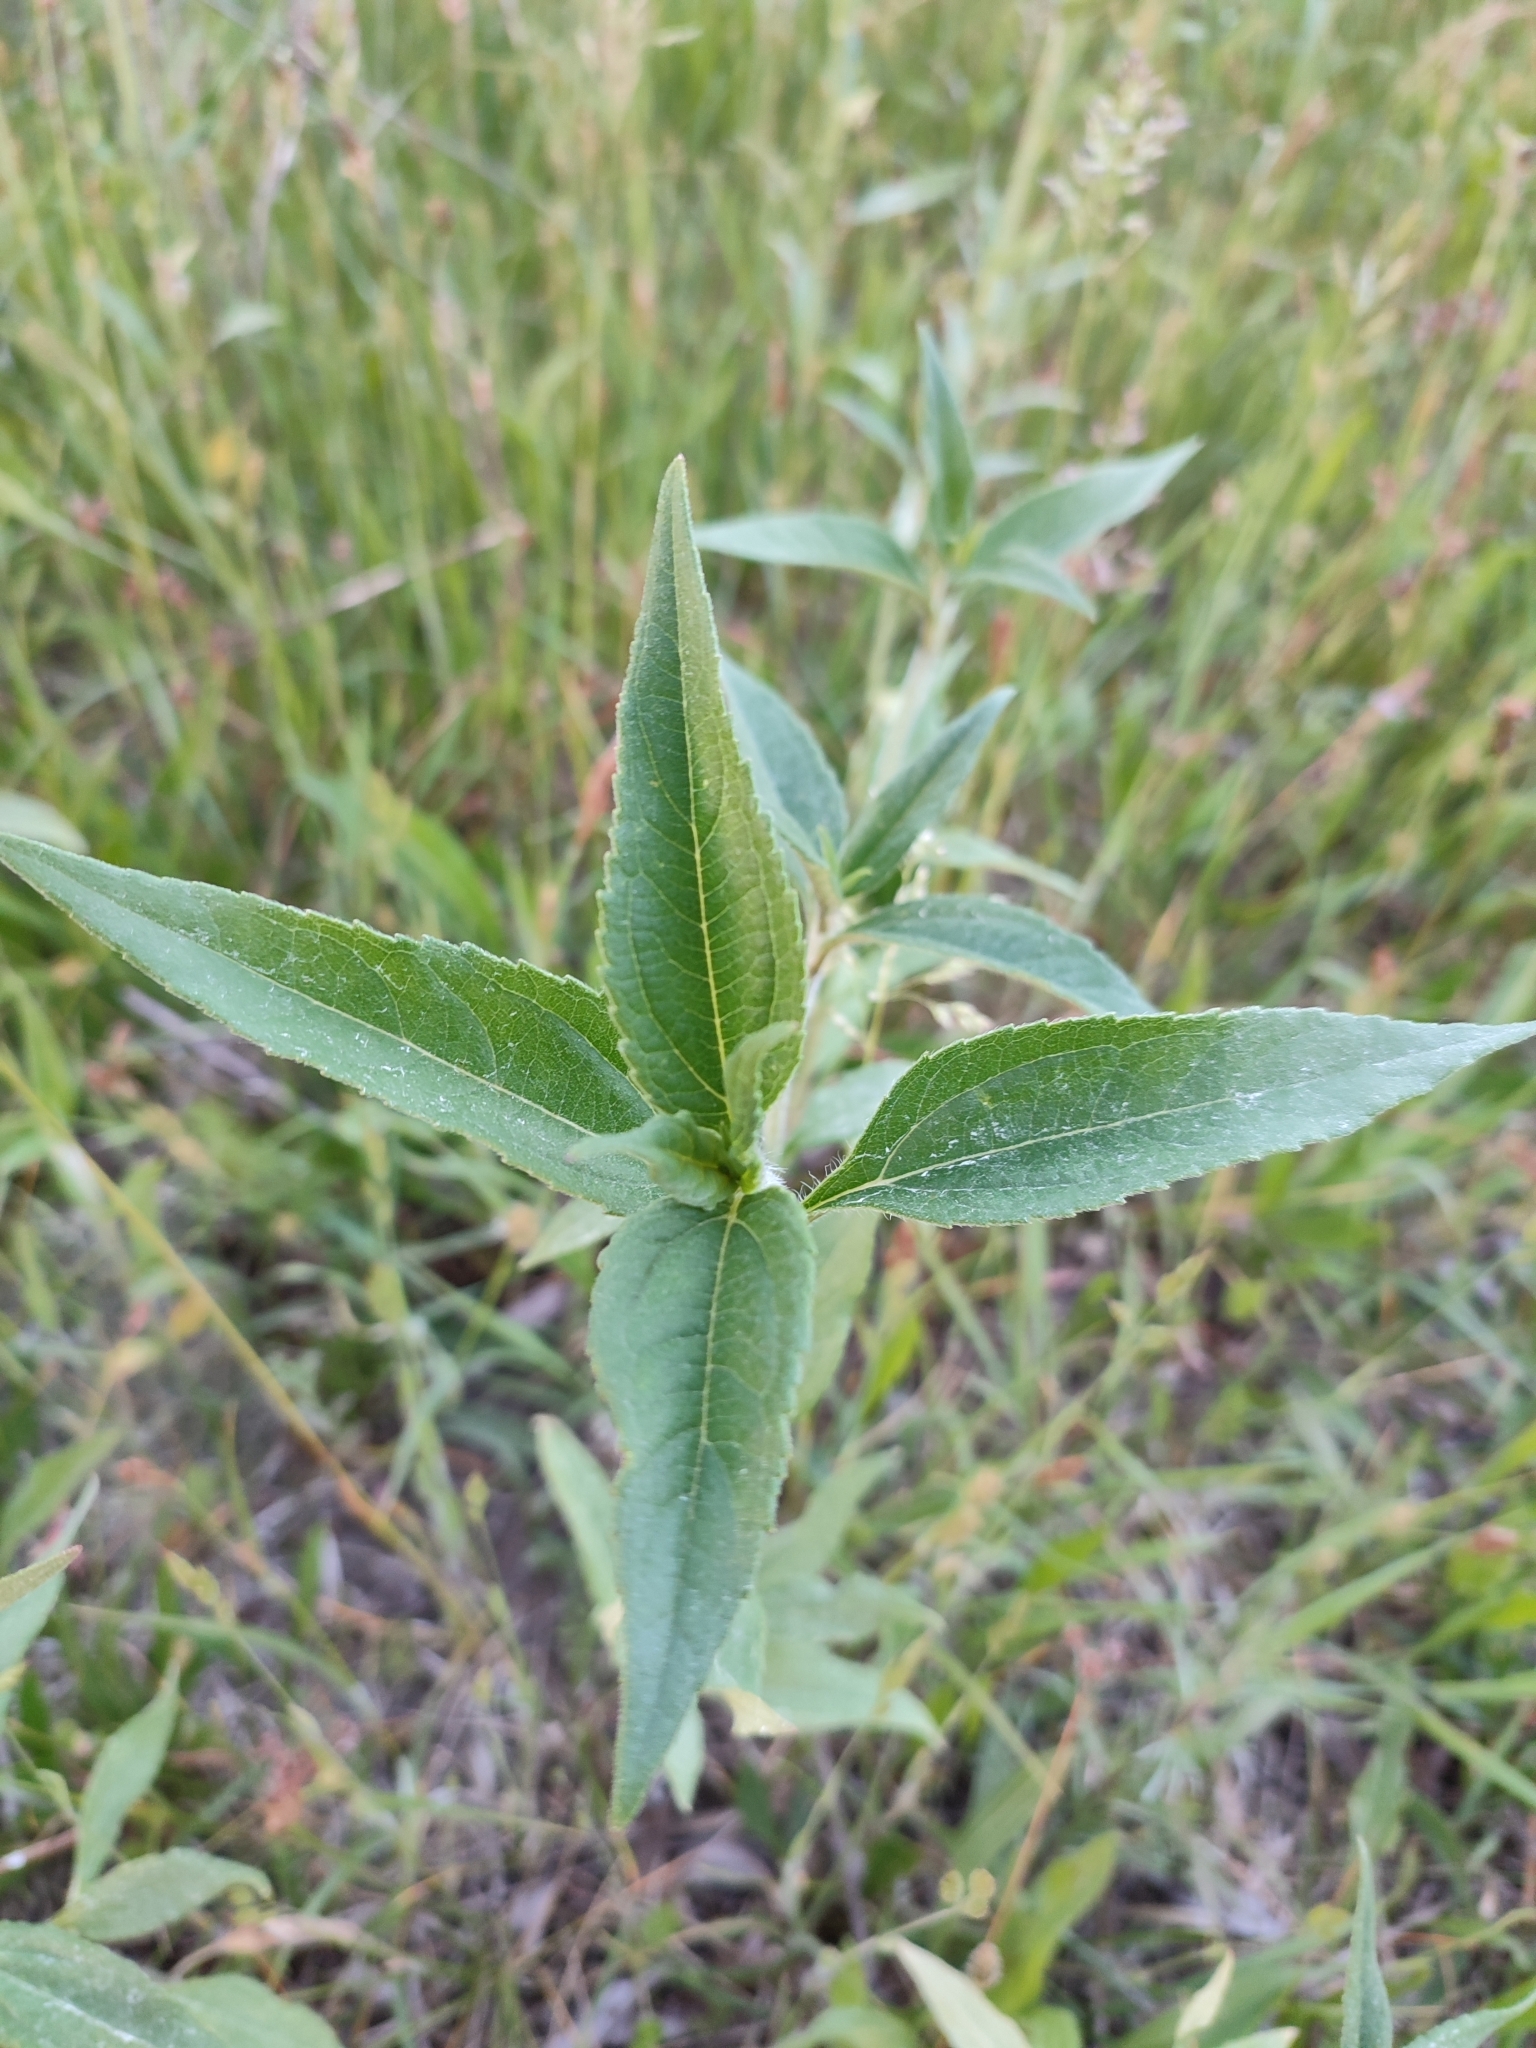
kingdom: Plantae
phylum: Tracheophyta
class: Magnoliopsida
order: Asterales
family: Asteraceae
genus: Helianthus
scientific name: Helianthus tuberosus
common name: Jerusalem artichoke
